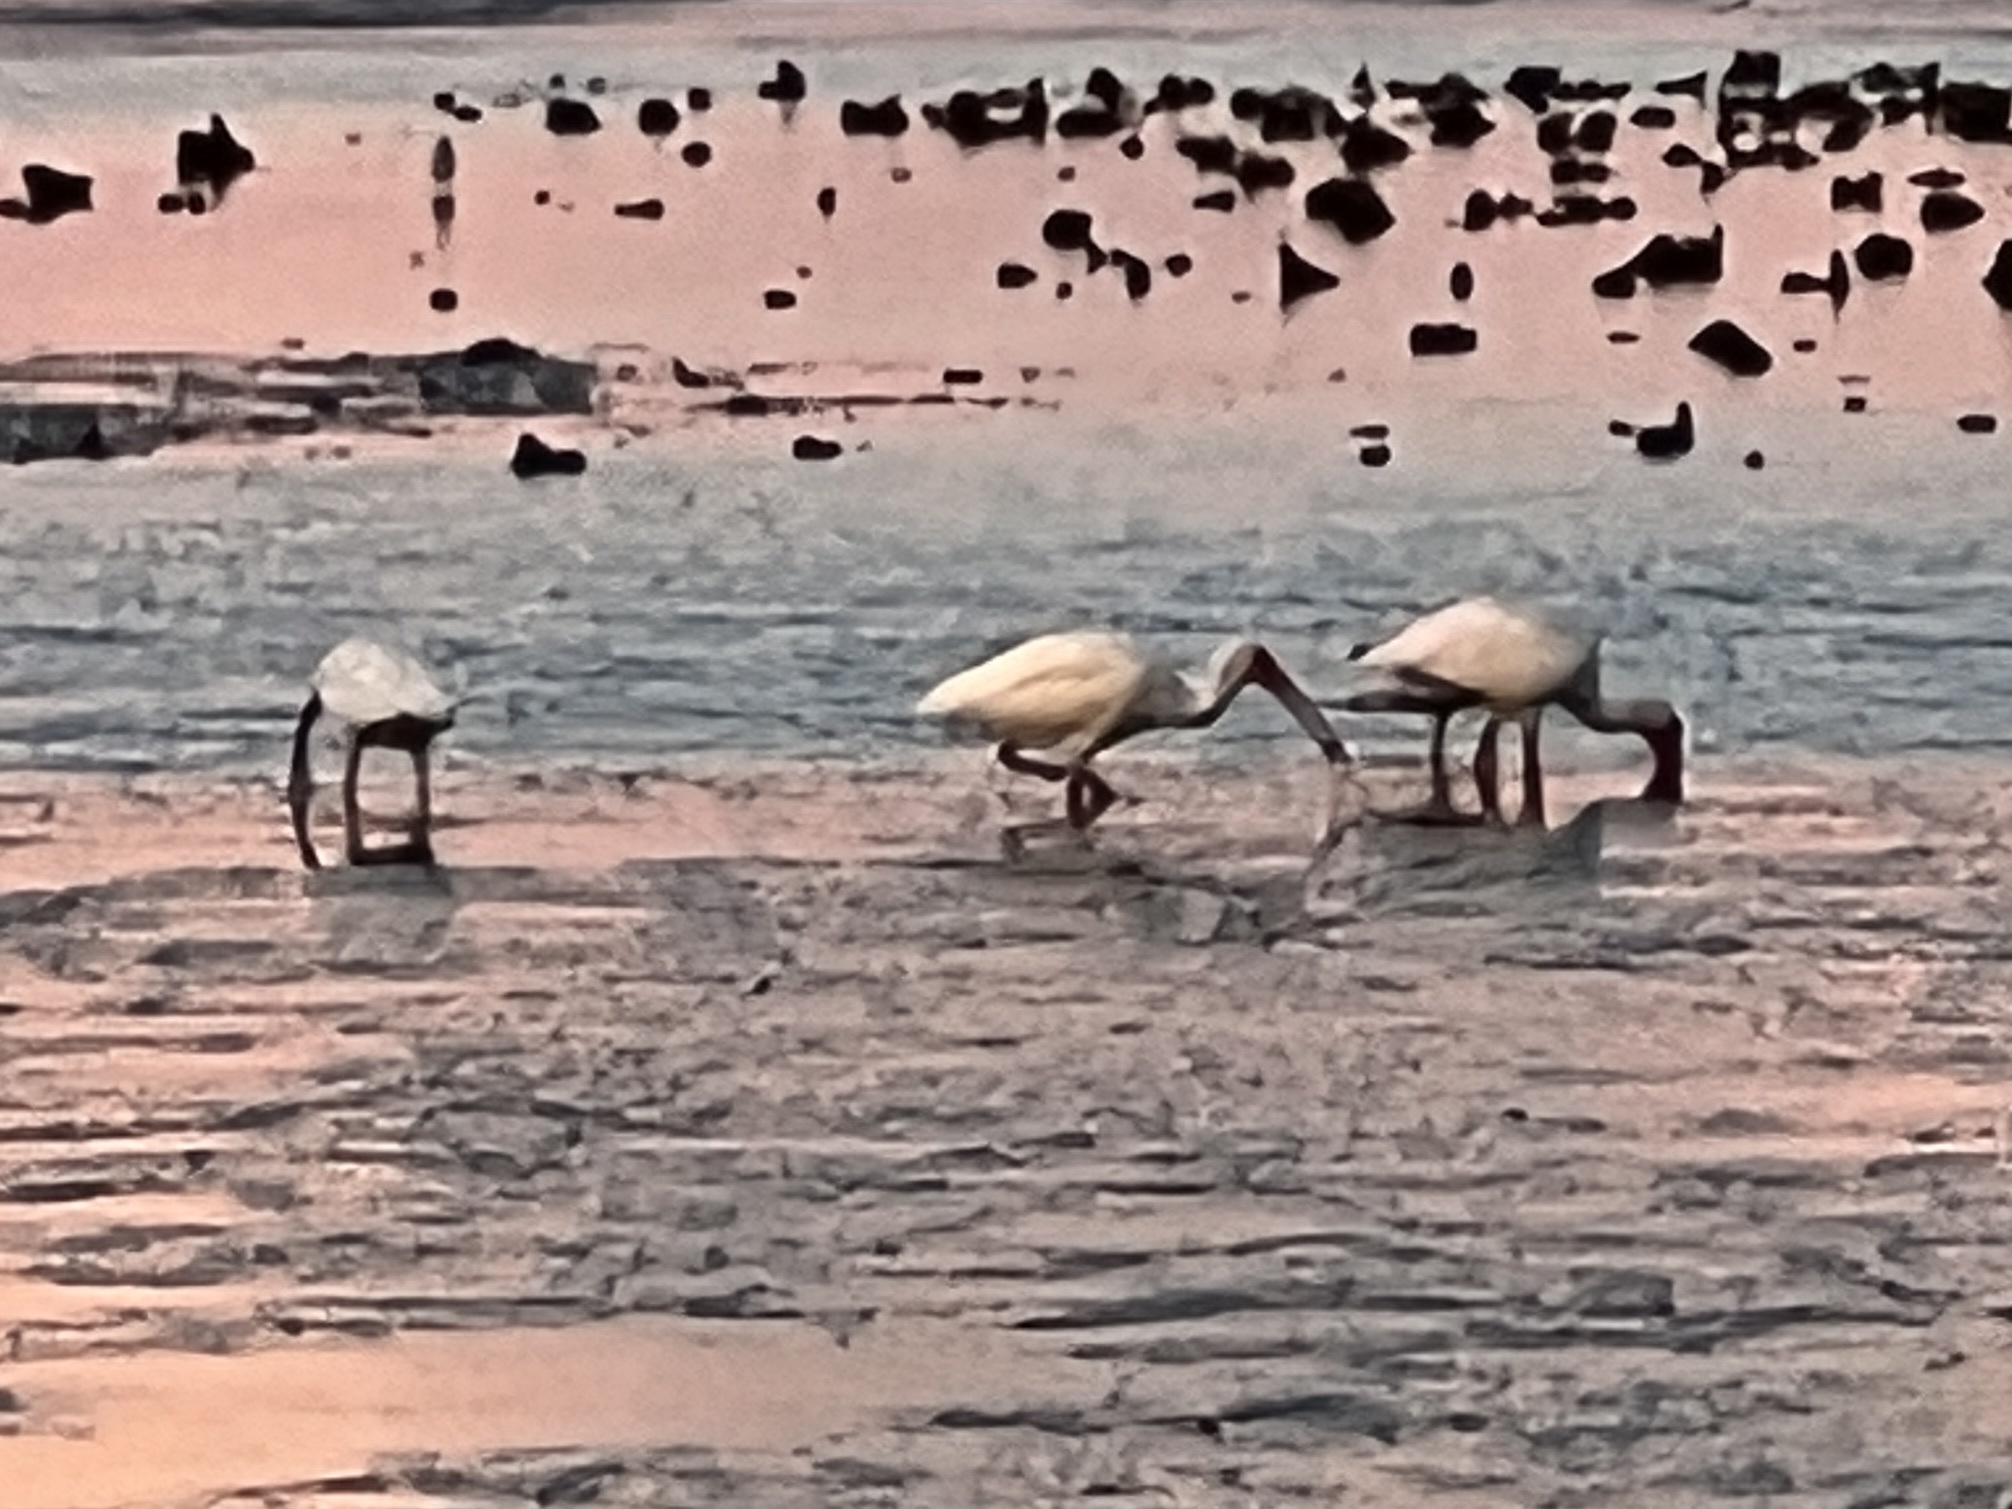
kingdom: Animalia
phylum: Chordata
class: Aves
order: Pelecaniformes
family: Threskiornithidae
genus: Eudocimus
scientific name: Eudocimus albus
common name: White ibis
